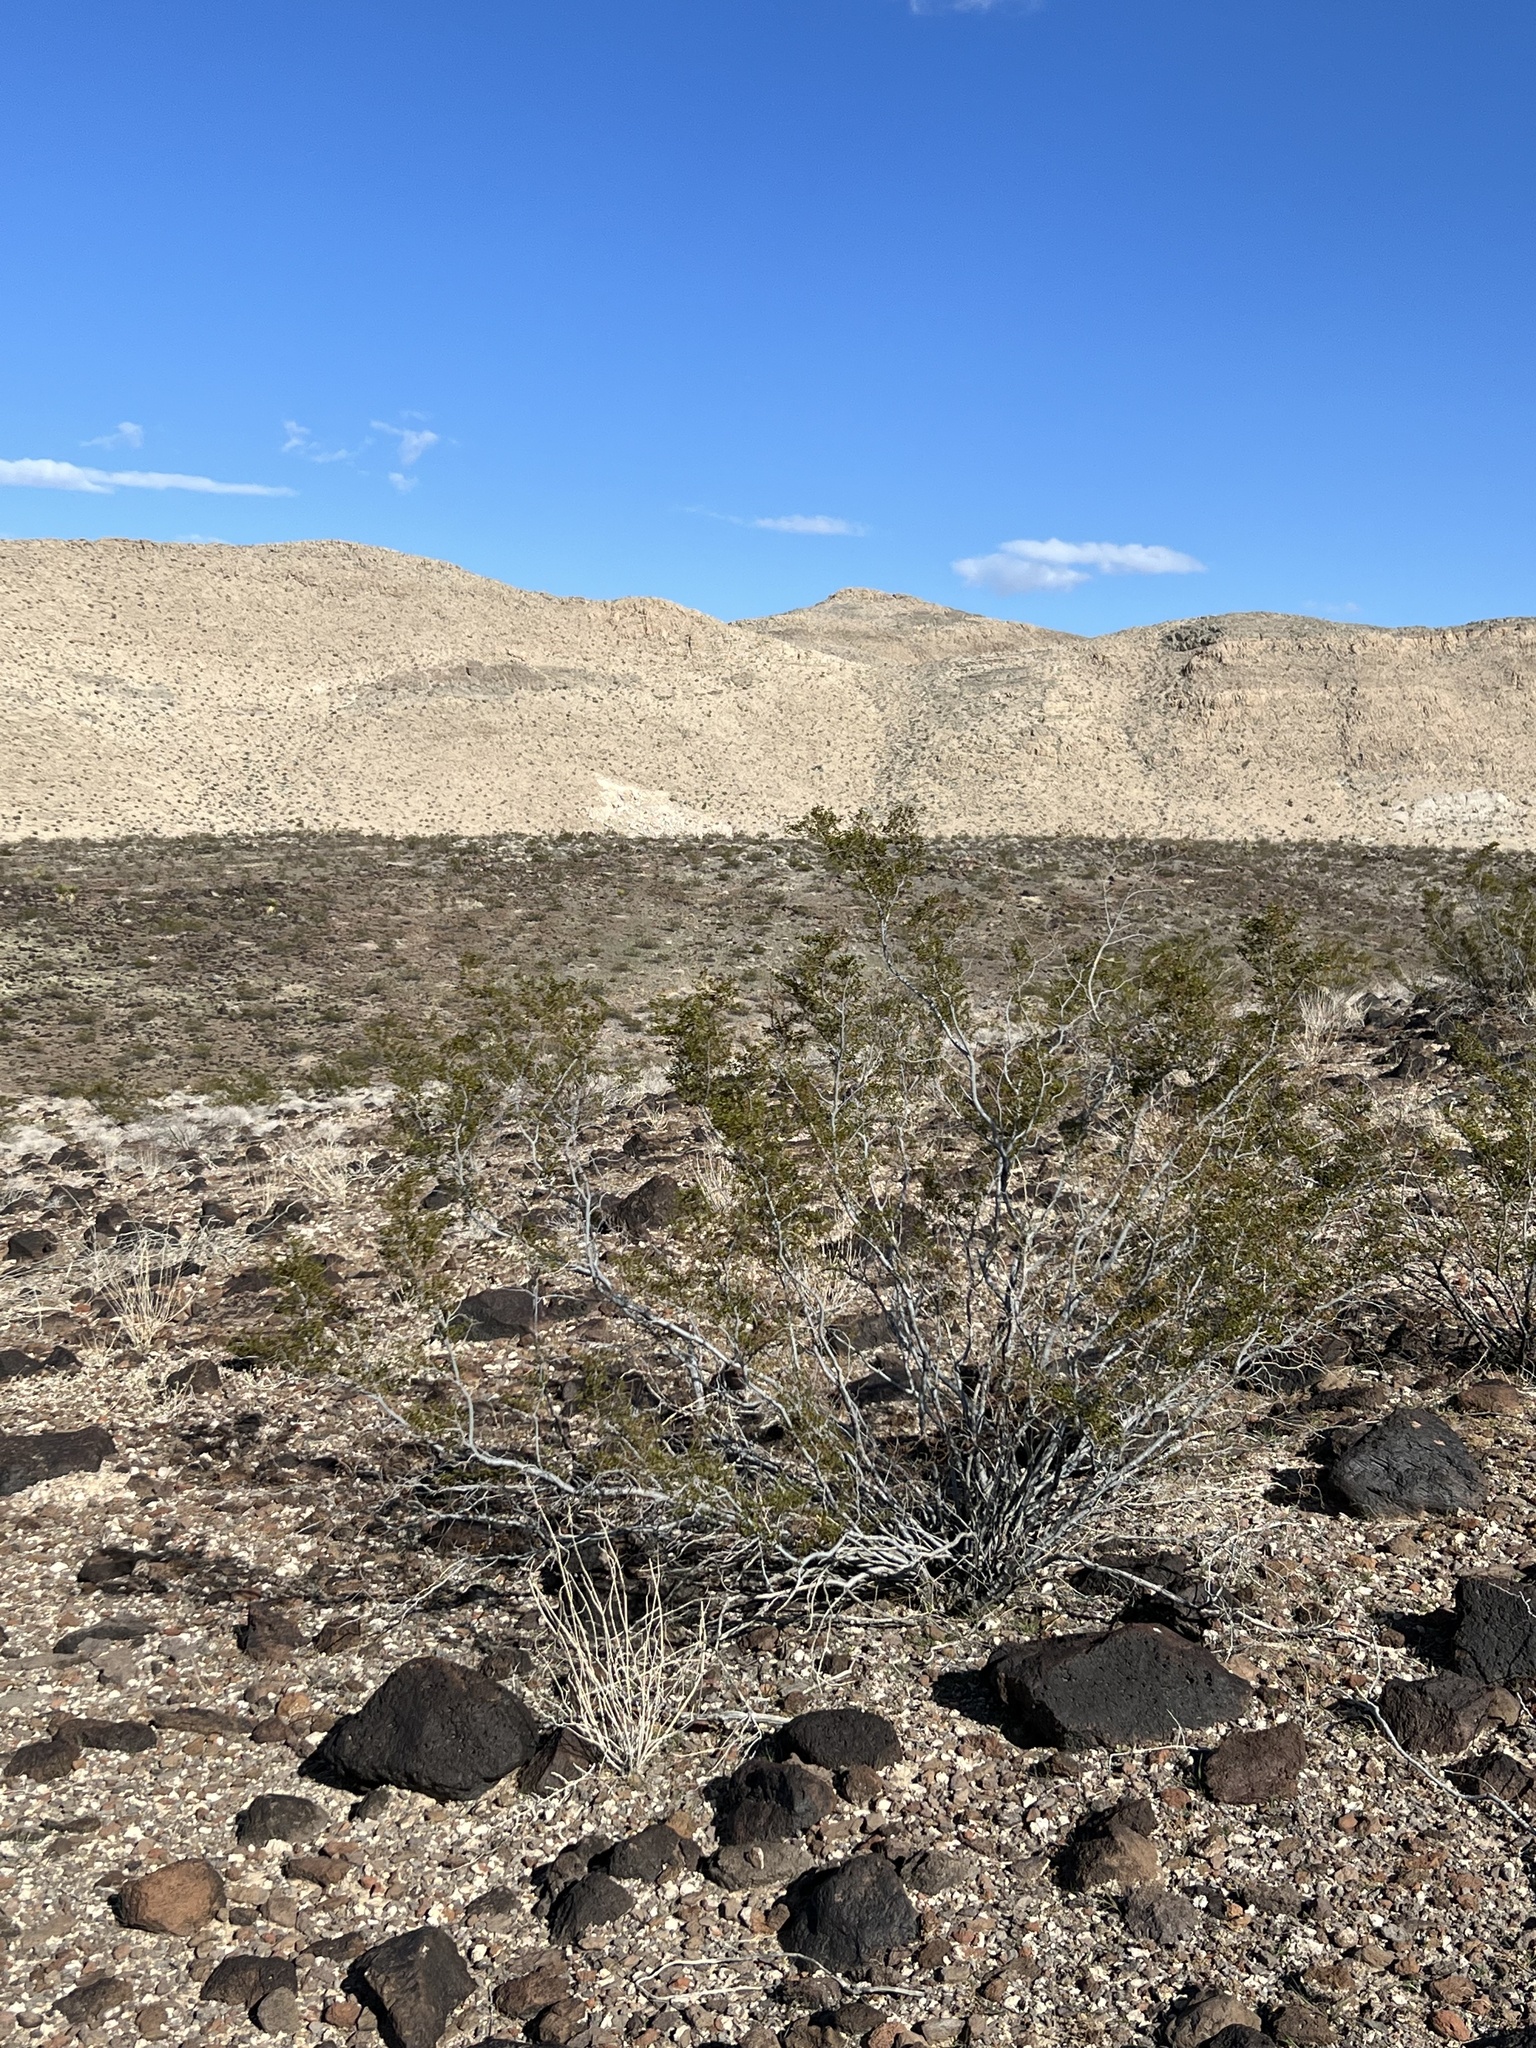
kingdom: Plantae
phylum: Tracheophyta
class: Magnoliopsida
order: Zygophyllales
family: Zygophyllaceae
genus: Larrea
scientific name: Larrea tridentata
